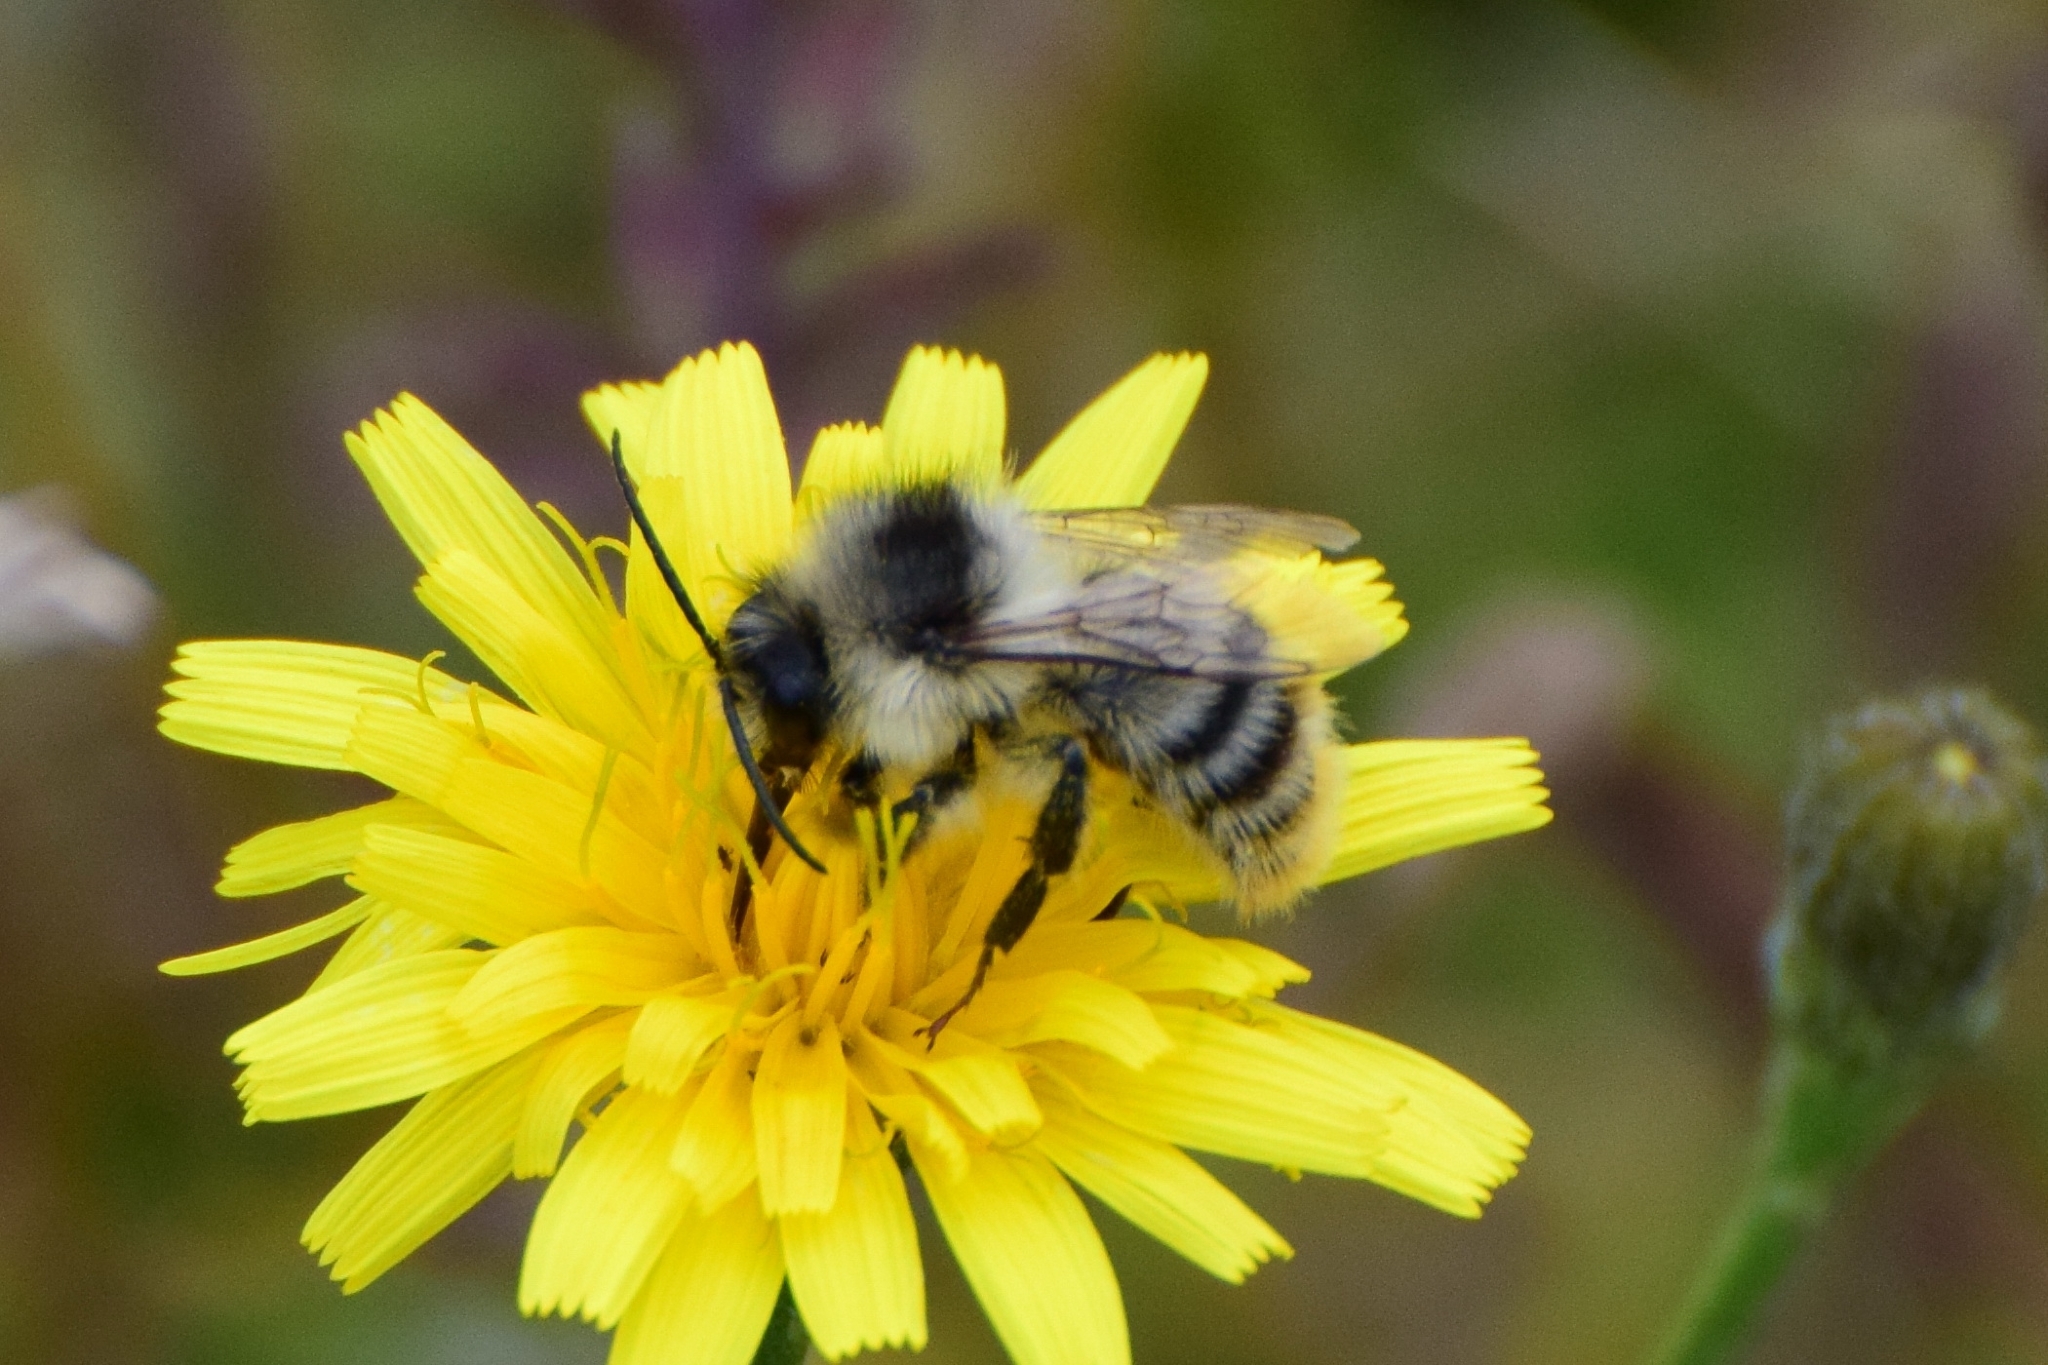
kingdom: Animalia
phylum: Arthropoda
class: Insecta
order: Hymenoptera
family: Apidae
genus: Bombus
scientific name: Bombus sylvarum
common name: Shrill carder bee
